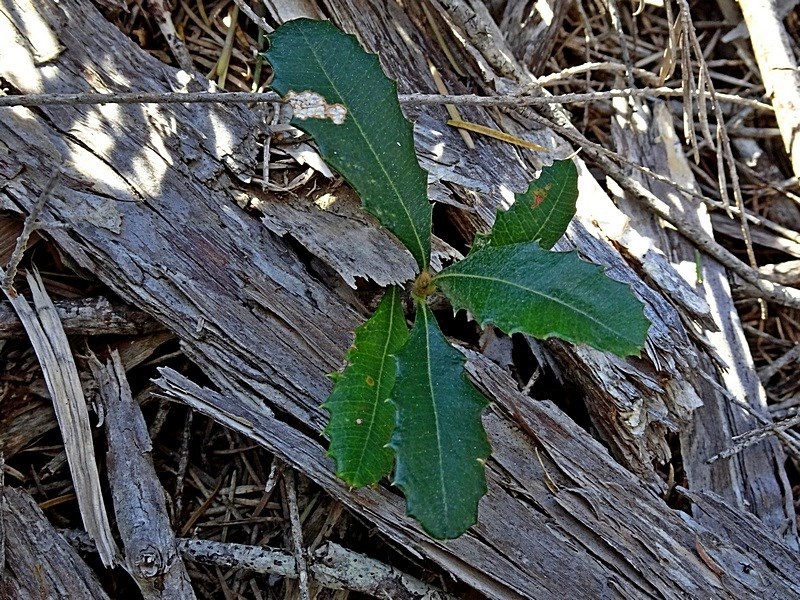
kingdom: Plantae
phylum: Tracheophyta
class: Magnoliopsida
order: Proteales
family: Proteaceae
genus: Banksia
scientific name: Banksia integrifolia
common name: White-honeysuckle
